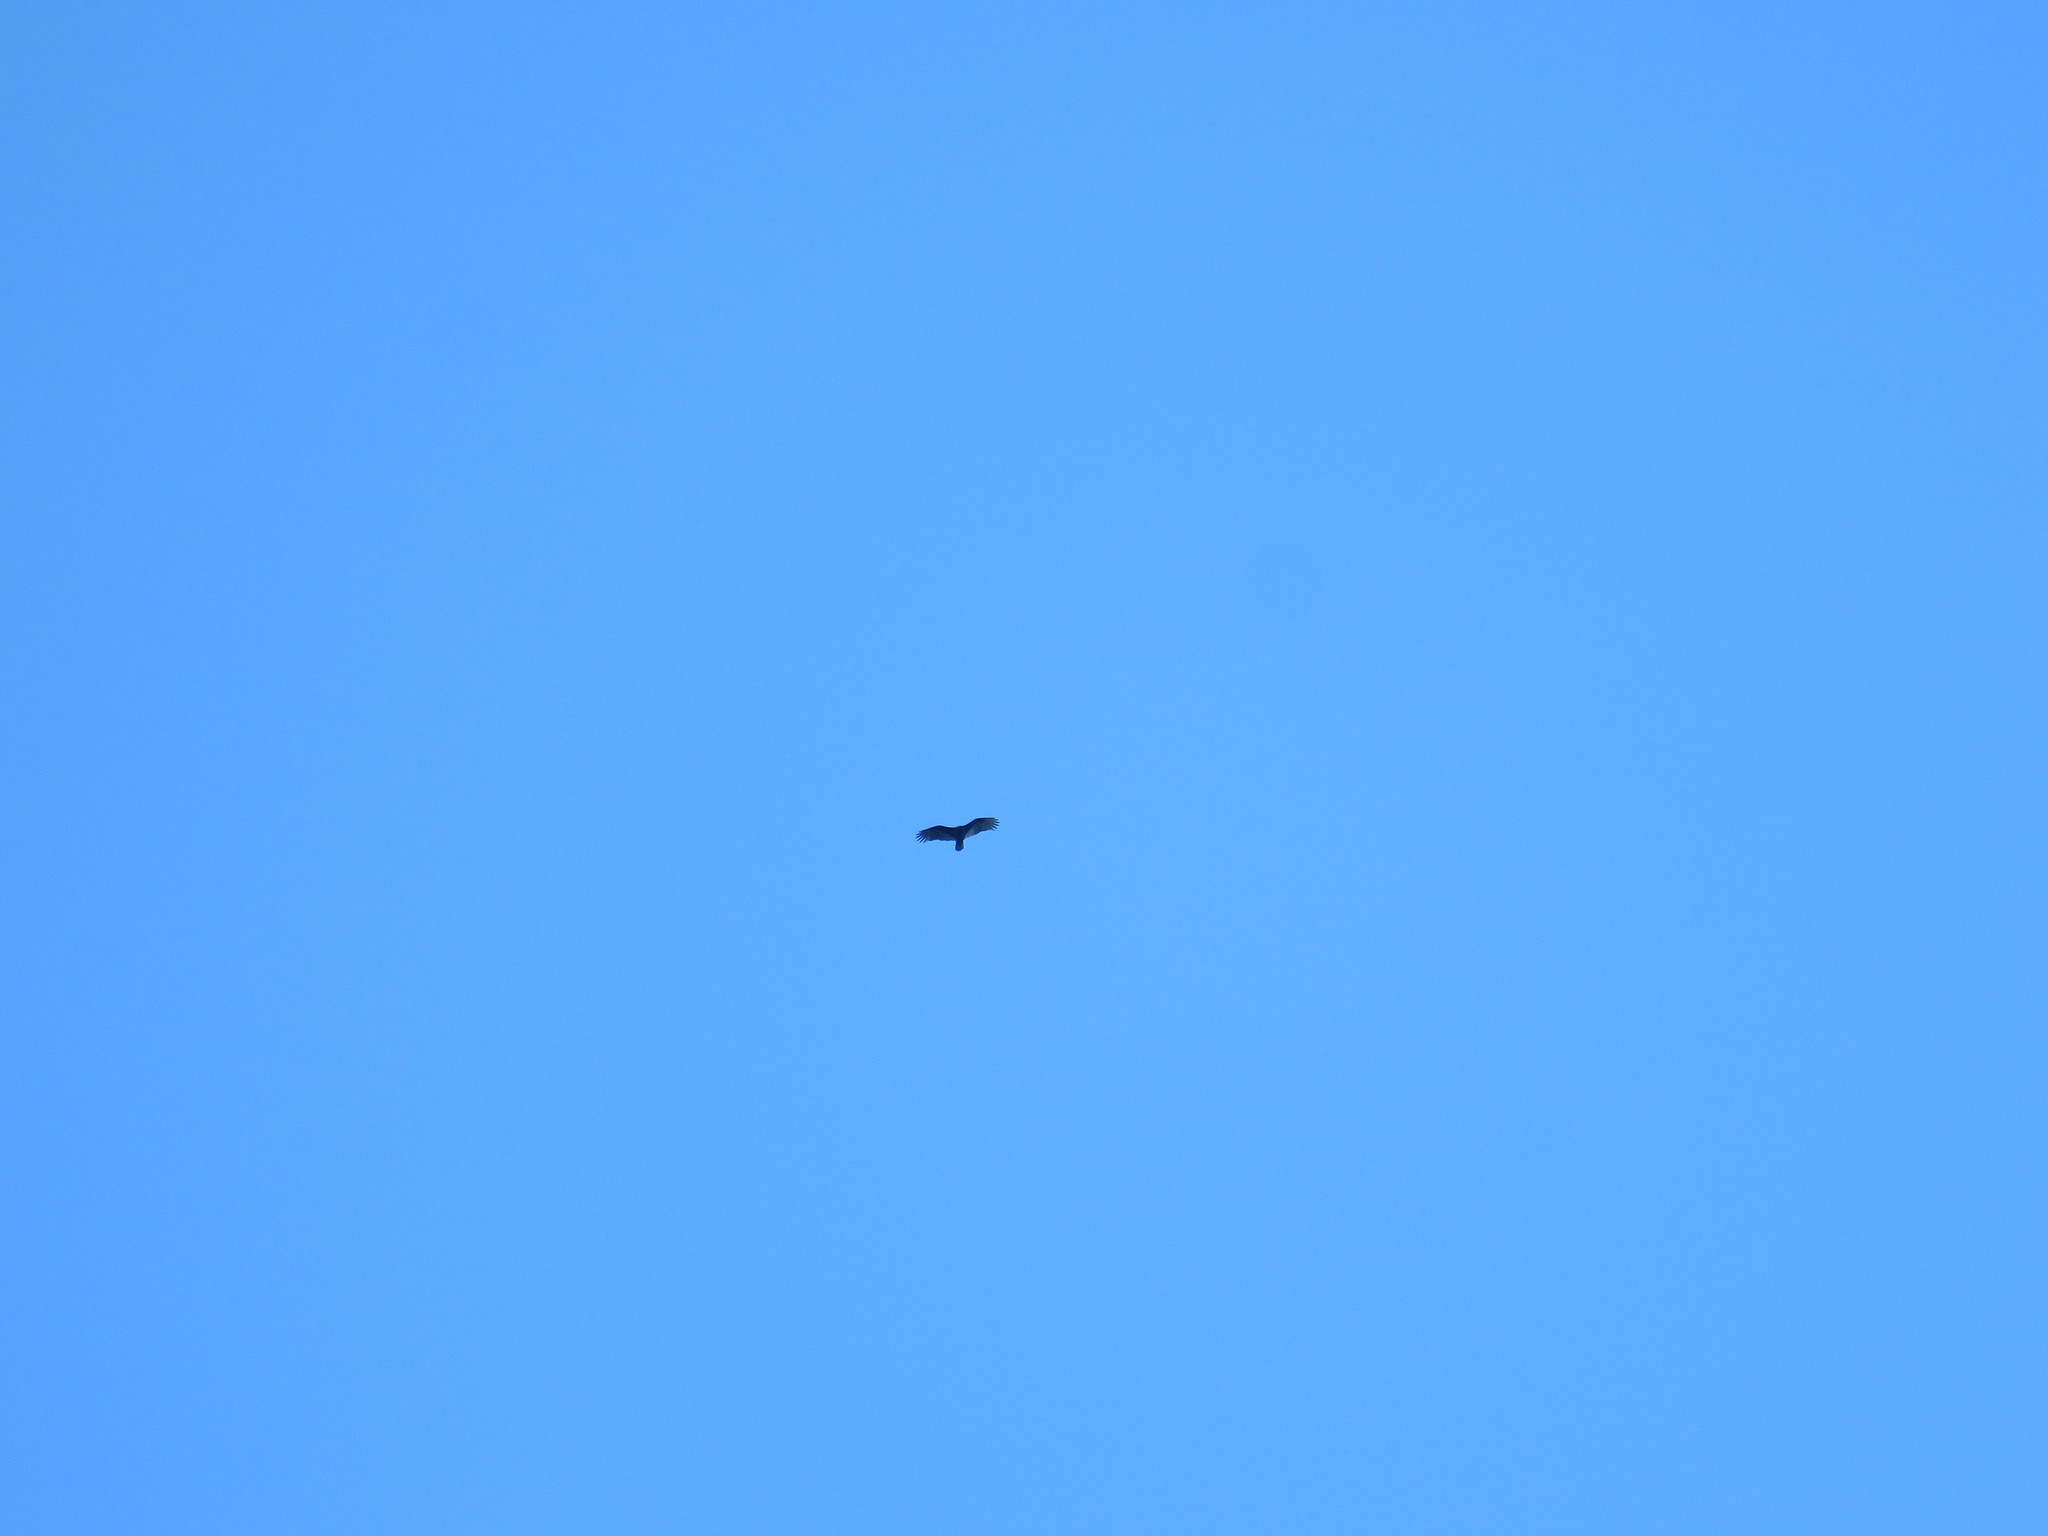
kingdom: Animalia
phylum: Chordata
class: Aves
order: Accipitriformes
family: Cathartidae
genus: Cathartes
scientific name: Cathartes aura
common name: Turkey vulture
